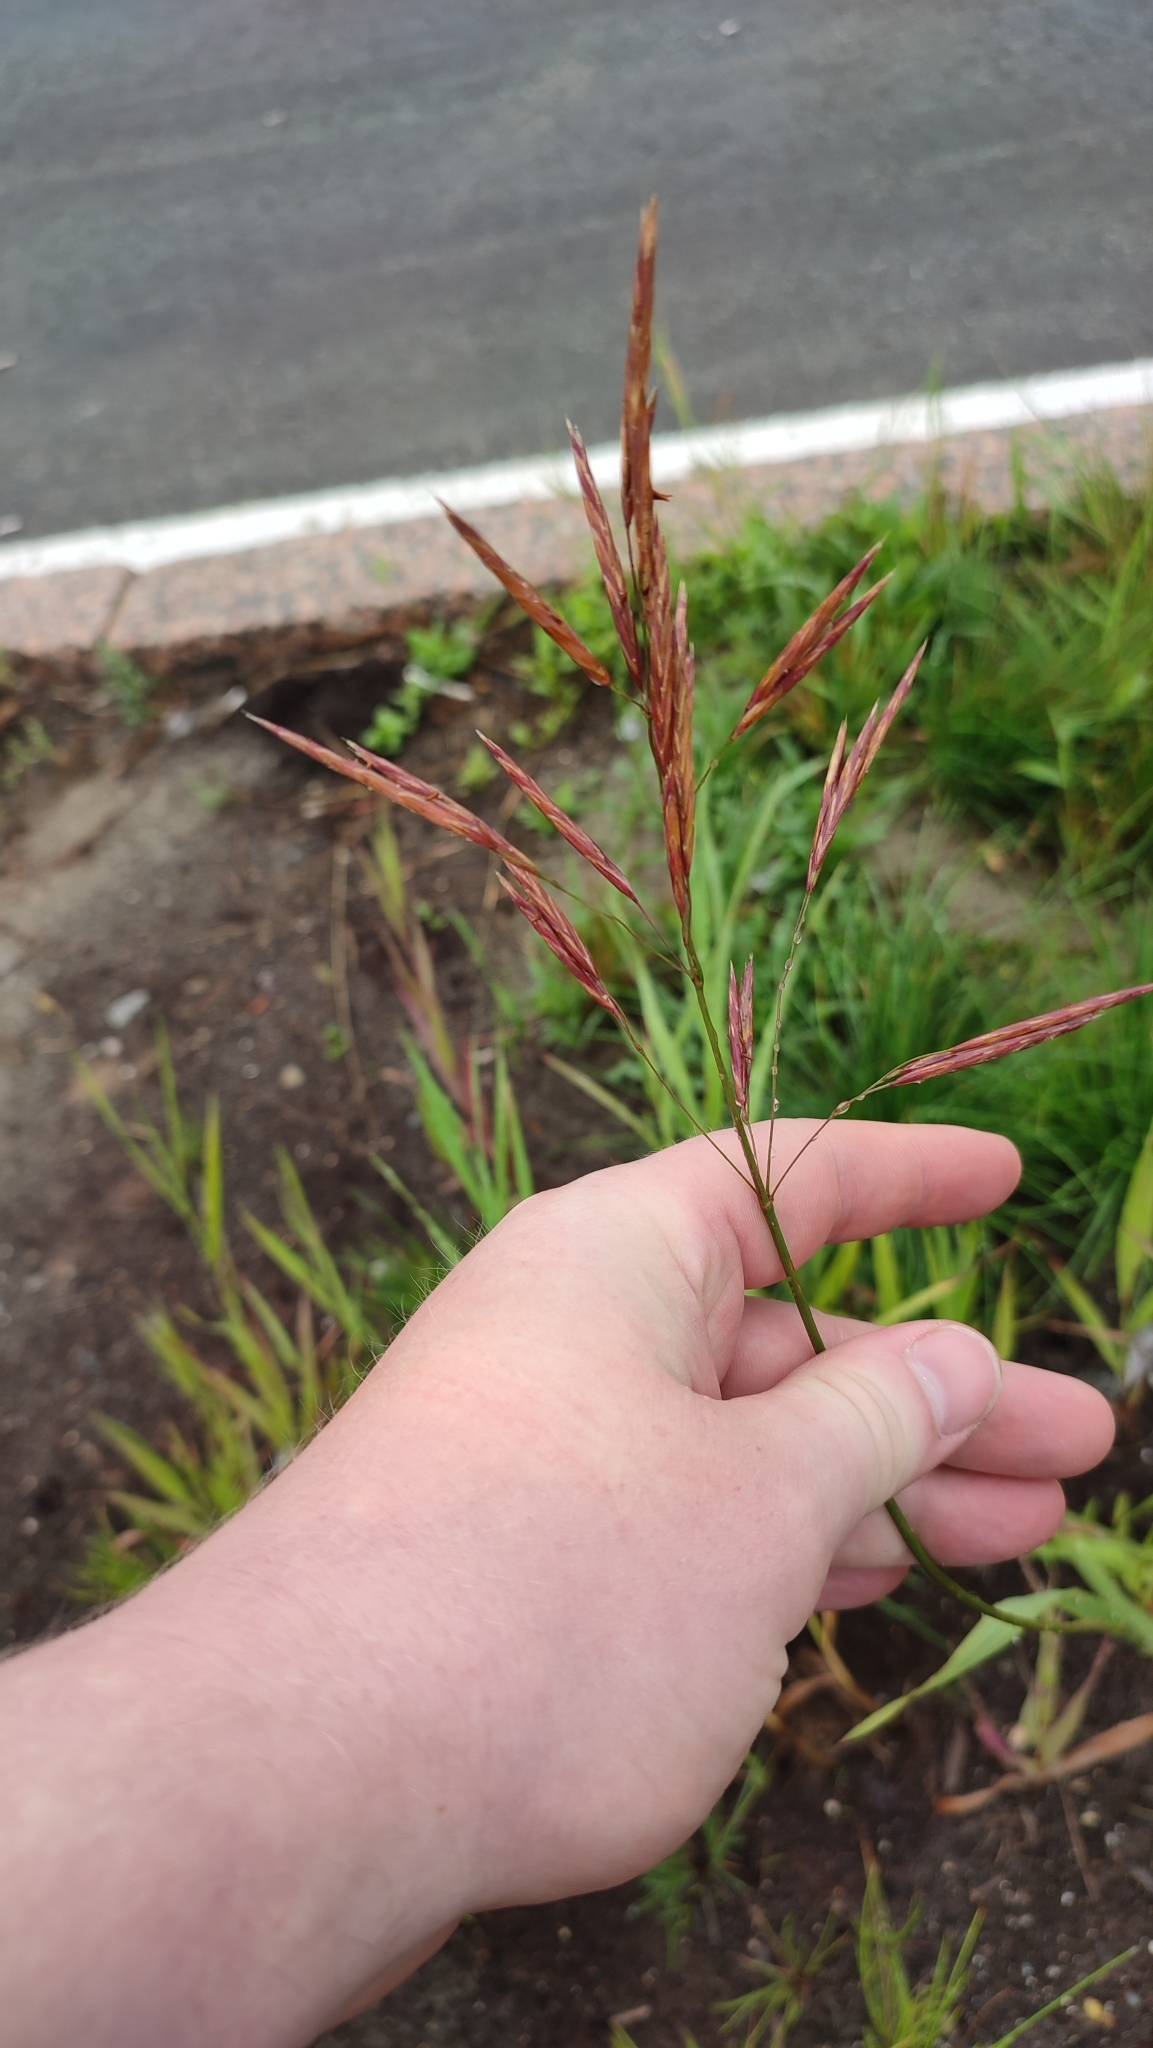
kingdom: Plantae
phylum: Tracheophyta
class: Liliopsida
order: Poales
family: Poaceae
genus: Bromus
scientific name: Bromus inermis
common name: Smooth brome
